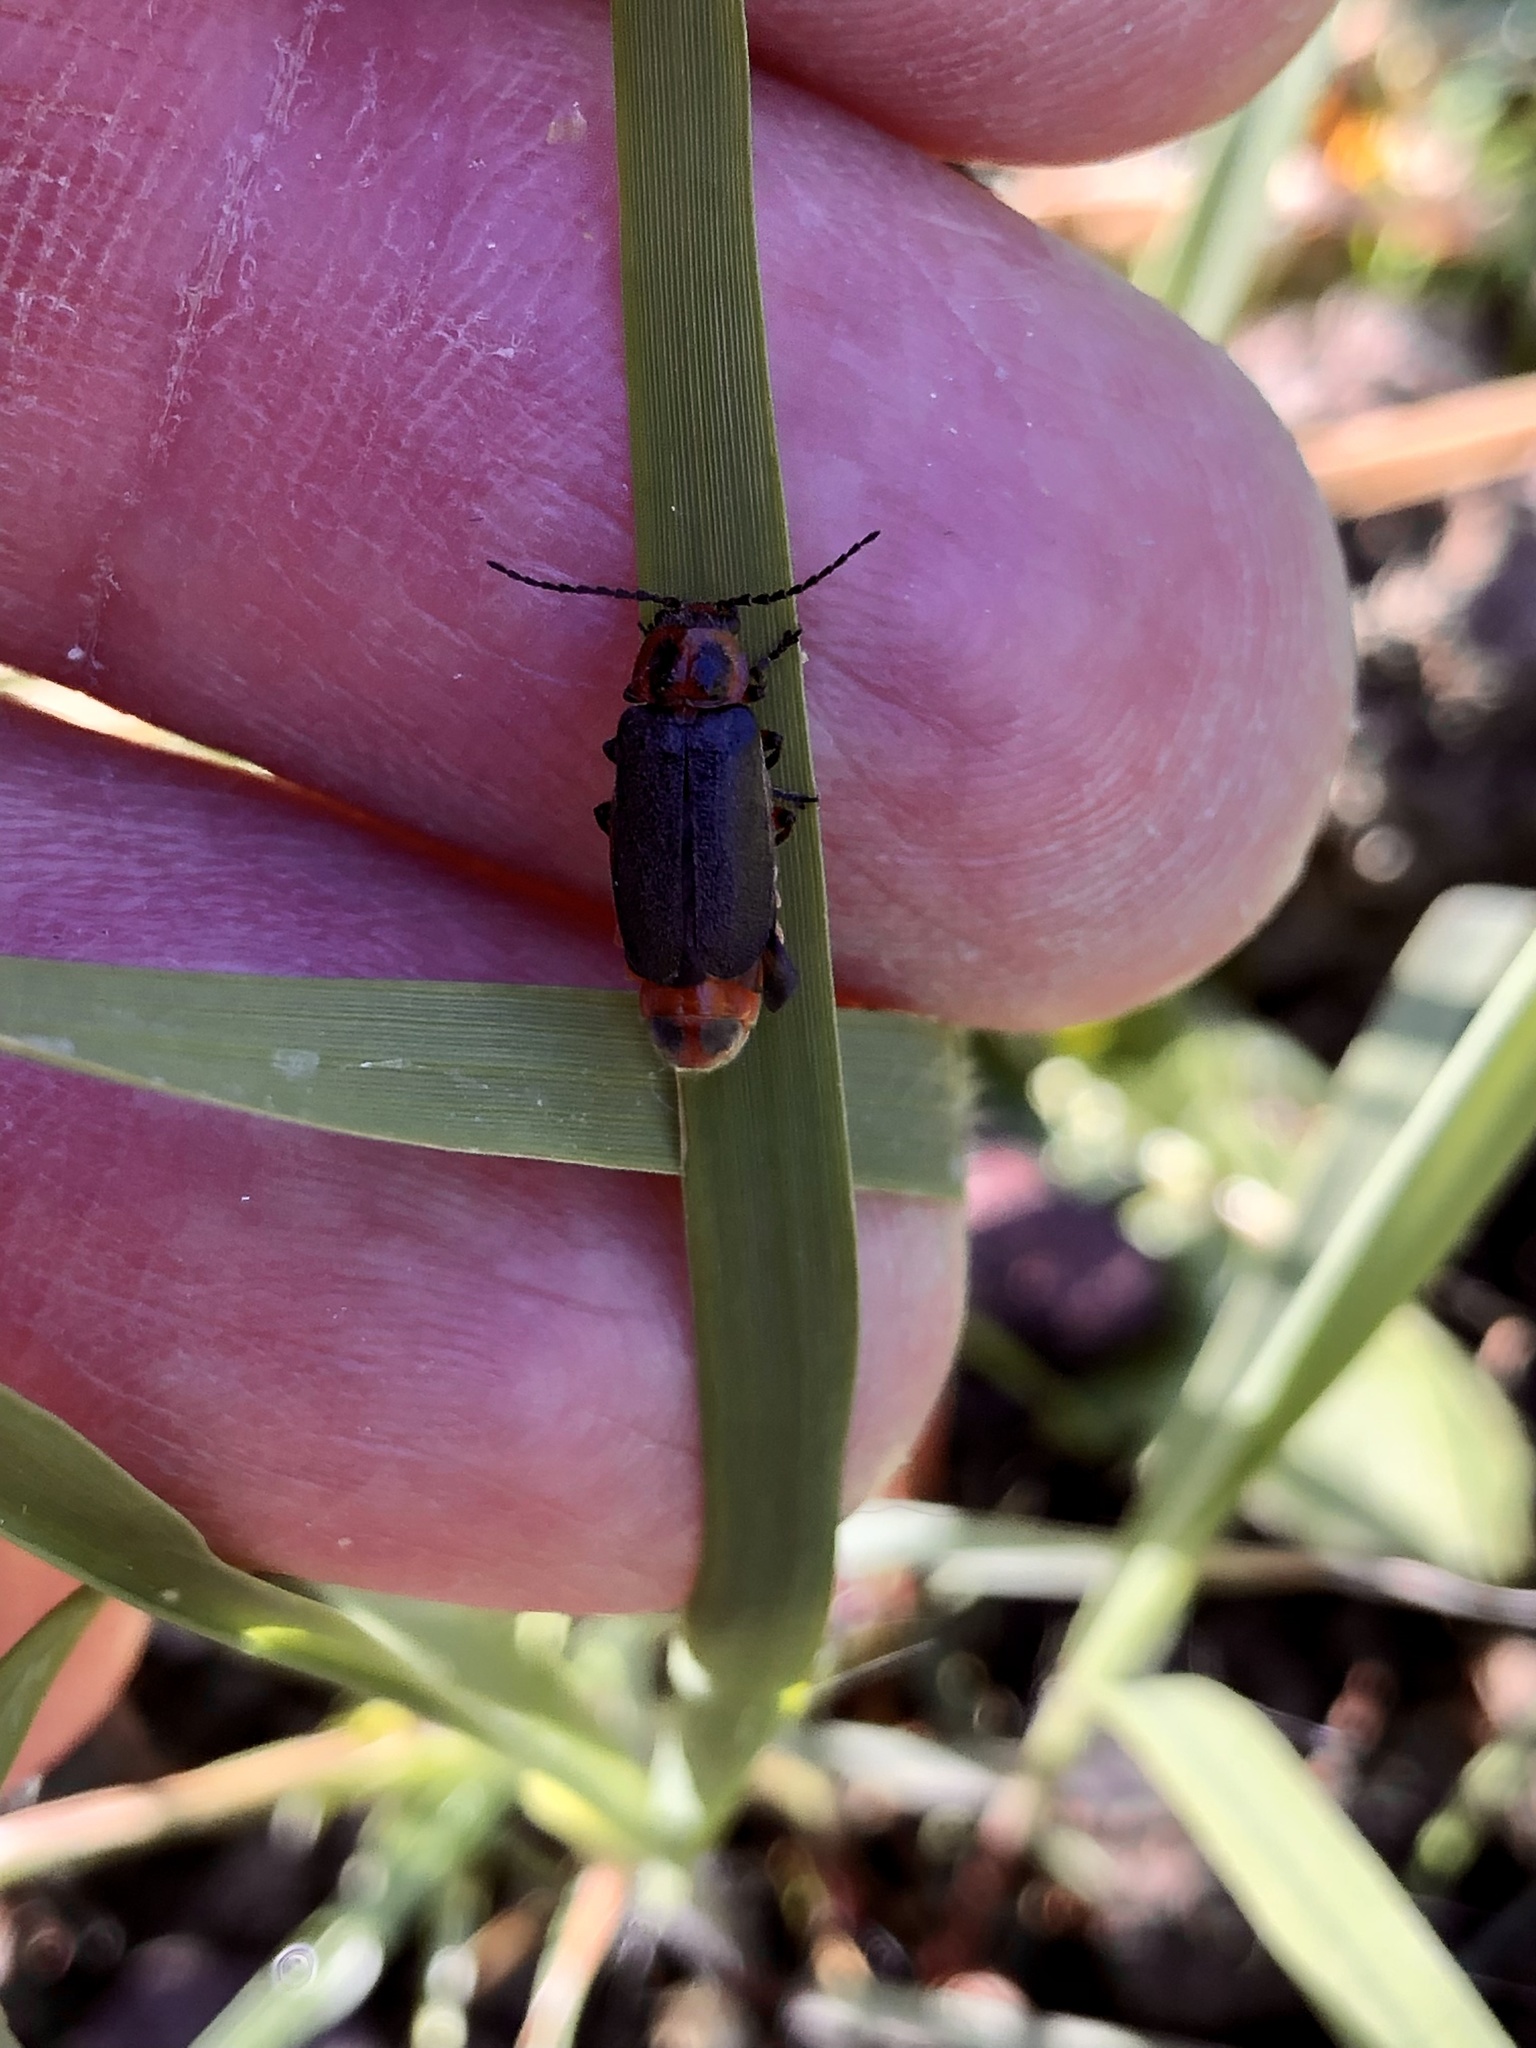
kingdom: Animalia
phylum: Arthropoda
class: Insecta
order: Coleoptera
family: Cantharidae
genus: Atalantycha
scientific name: Atalantycha bilineata
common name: Two-lined leatherwing
